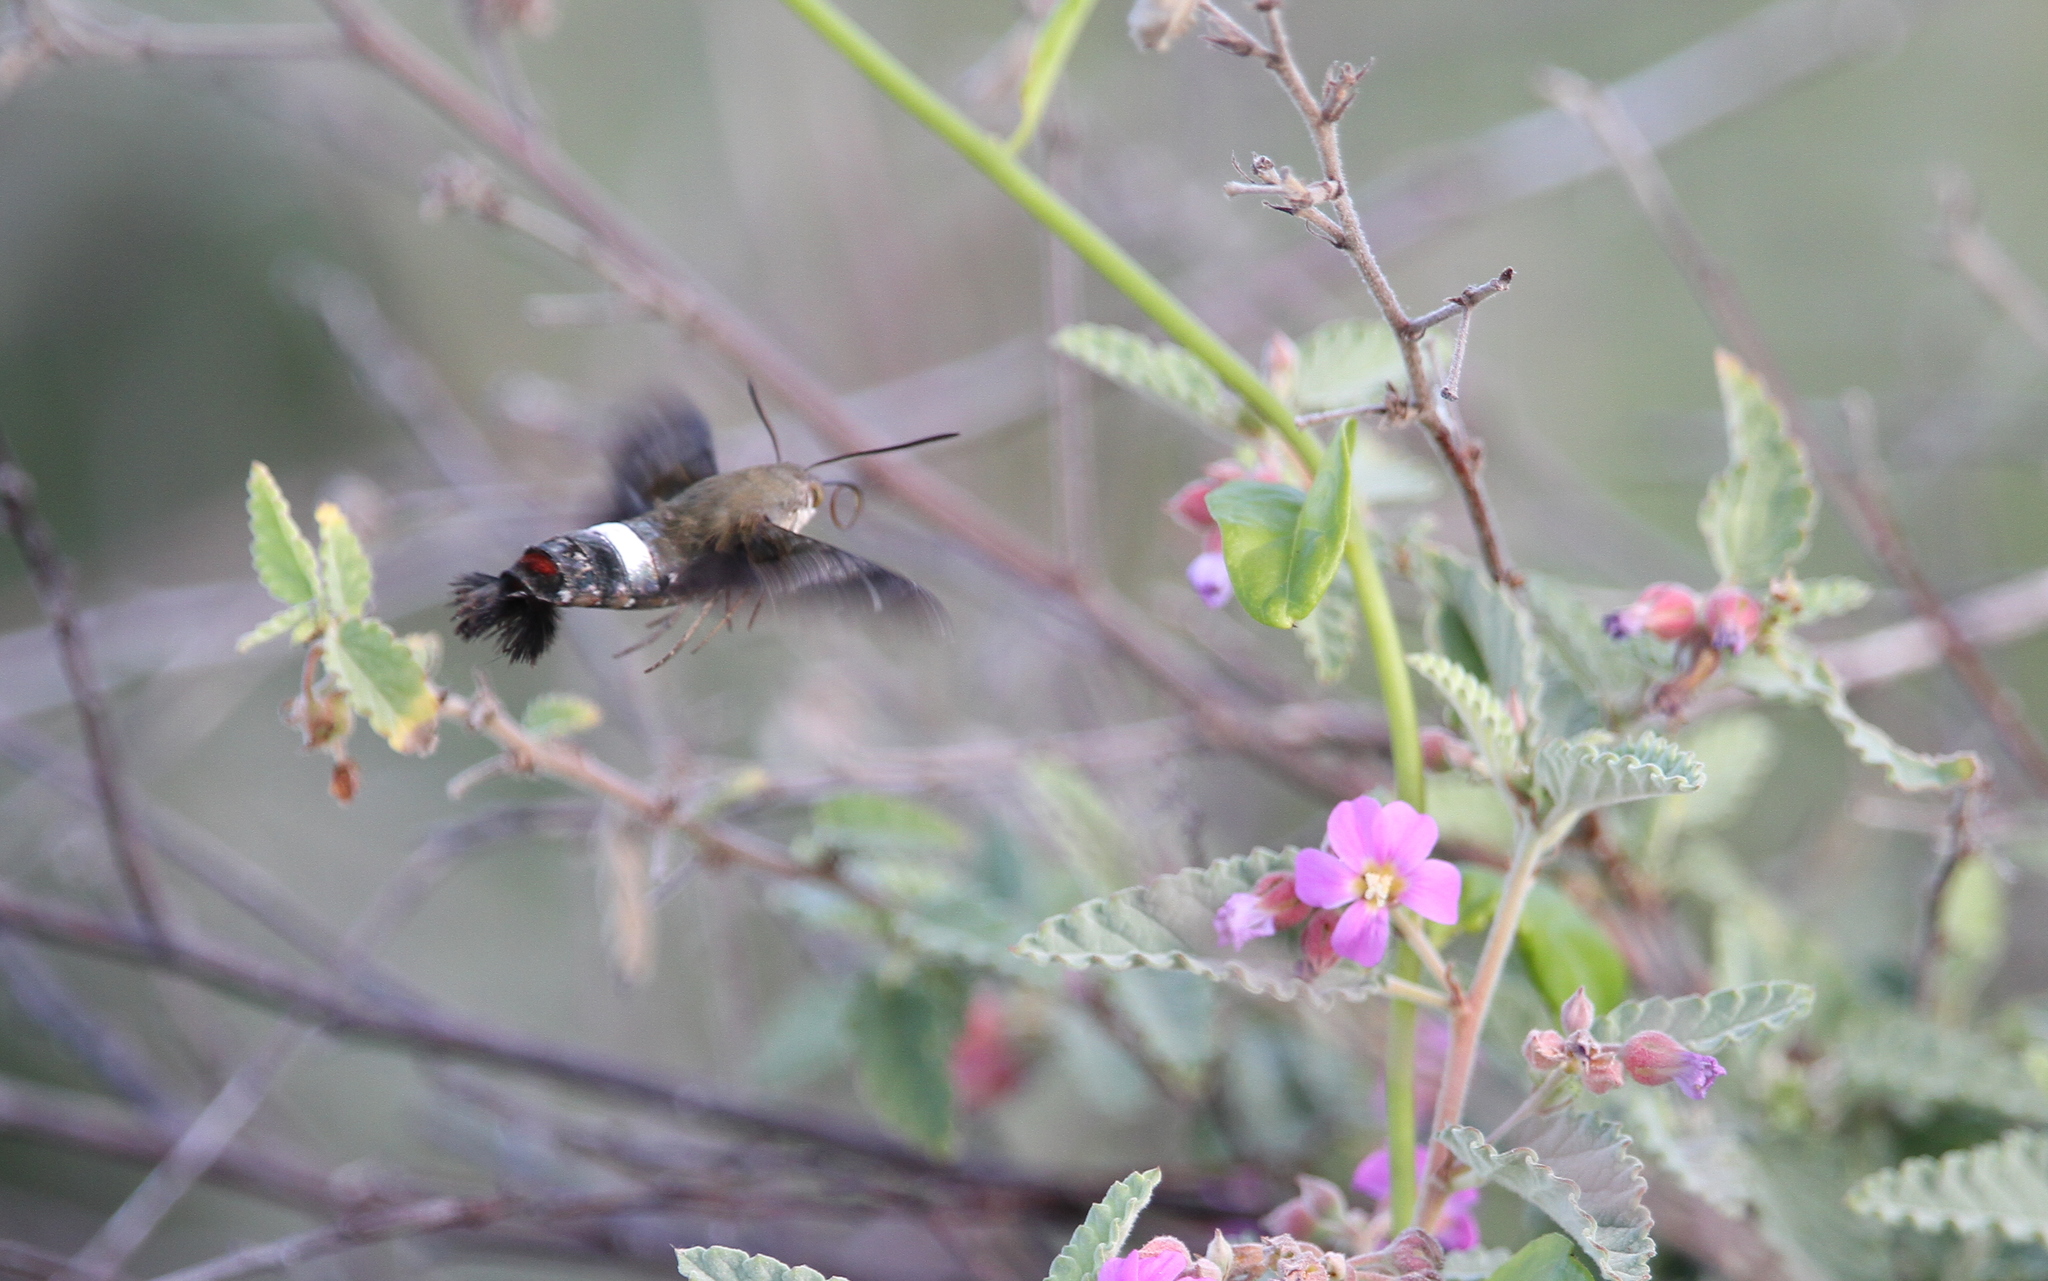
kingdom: Animalia
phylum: Arthropoda
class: Insecta
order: Lepidoptera
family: Sphingidae
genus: Aellopos
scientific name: Aellopos tantalus
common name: Tantalus sphinx
